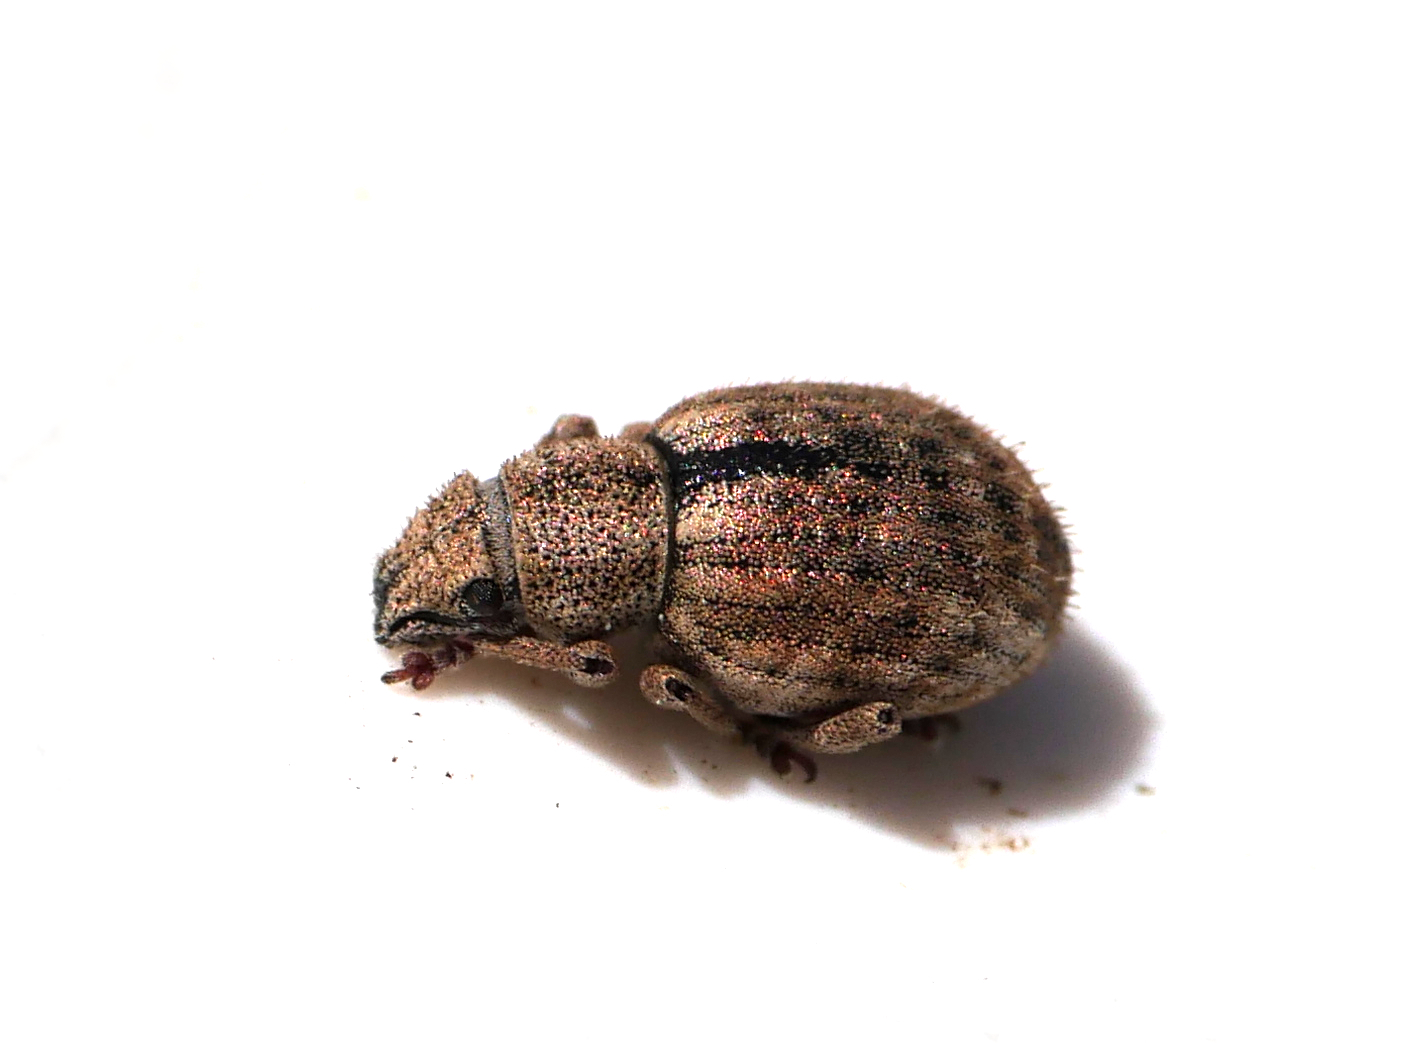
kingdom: Animalia
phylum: Arthropoda
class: Insecta
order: Coleoptera
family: Curculionidae
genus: Strophosoma
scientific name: Strophosoma melanogrammum
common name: Weevil
